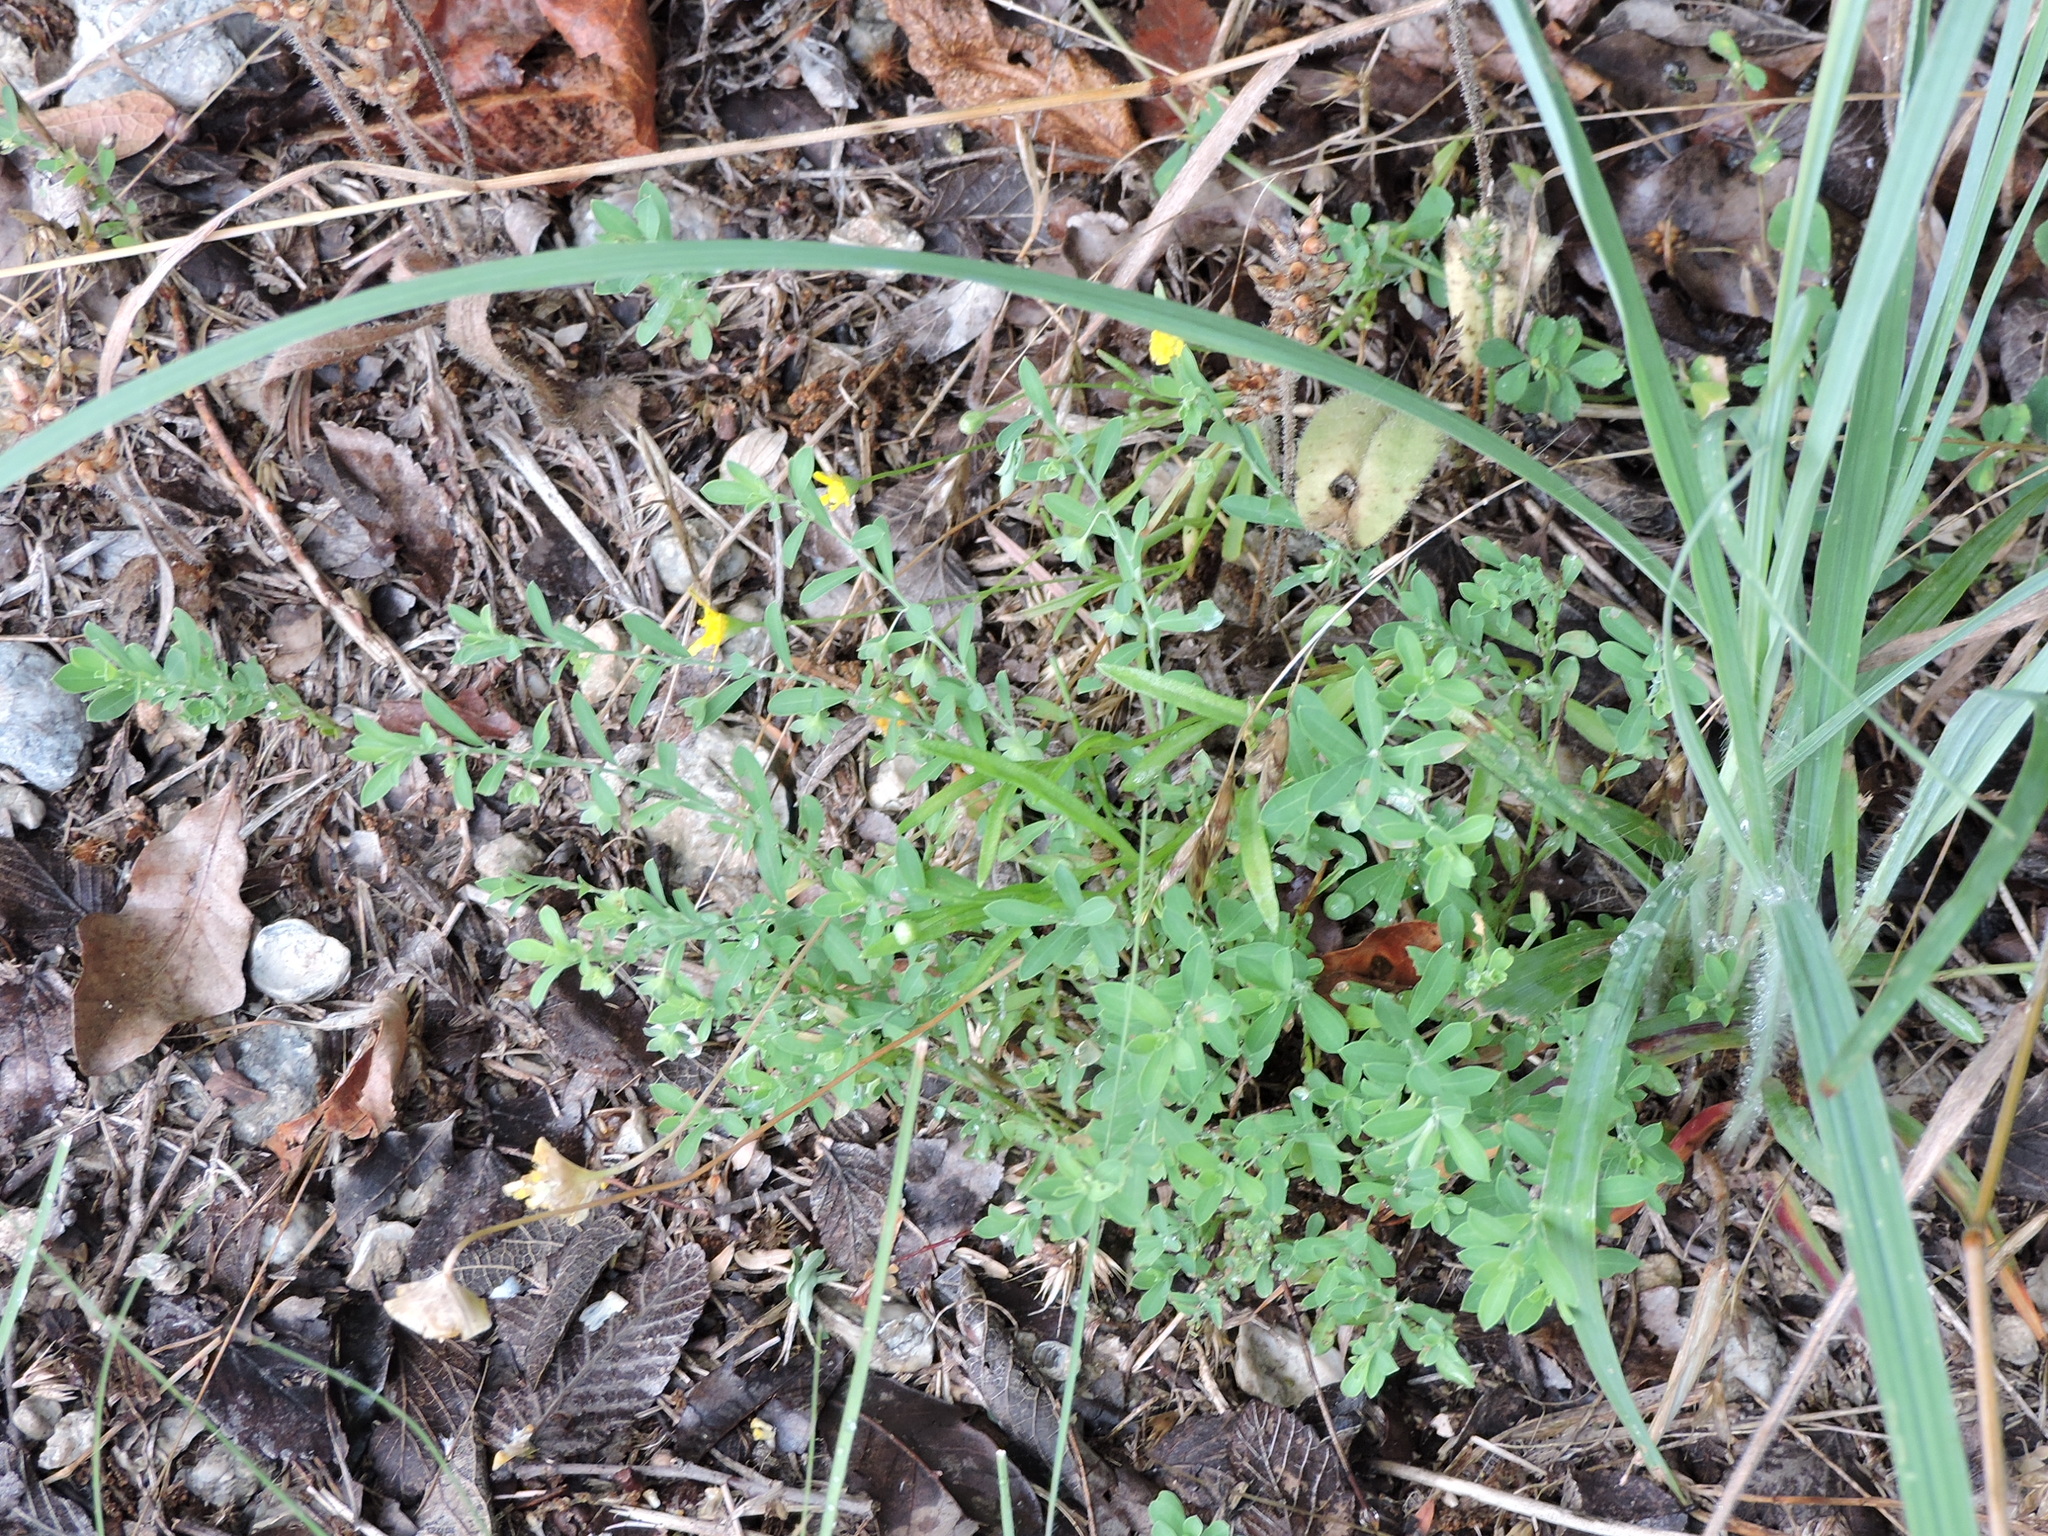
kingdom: Plantae
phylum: Tracheophyta
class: Magnoliopsida
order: Malpighiales
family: Phyllanthaceae
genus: Phyllanthus
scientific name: Phyllanthus polygonoides
